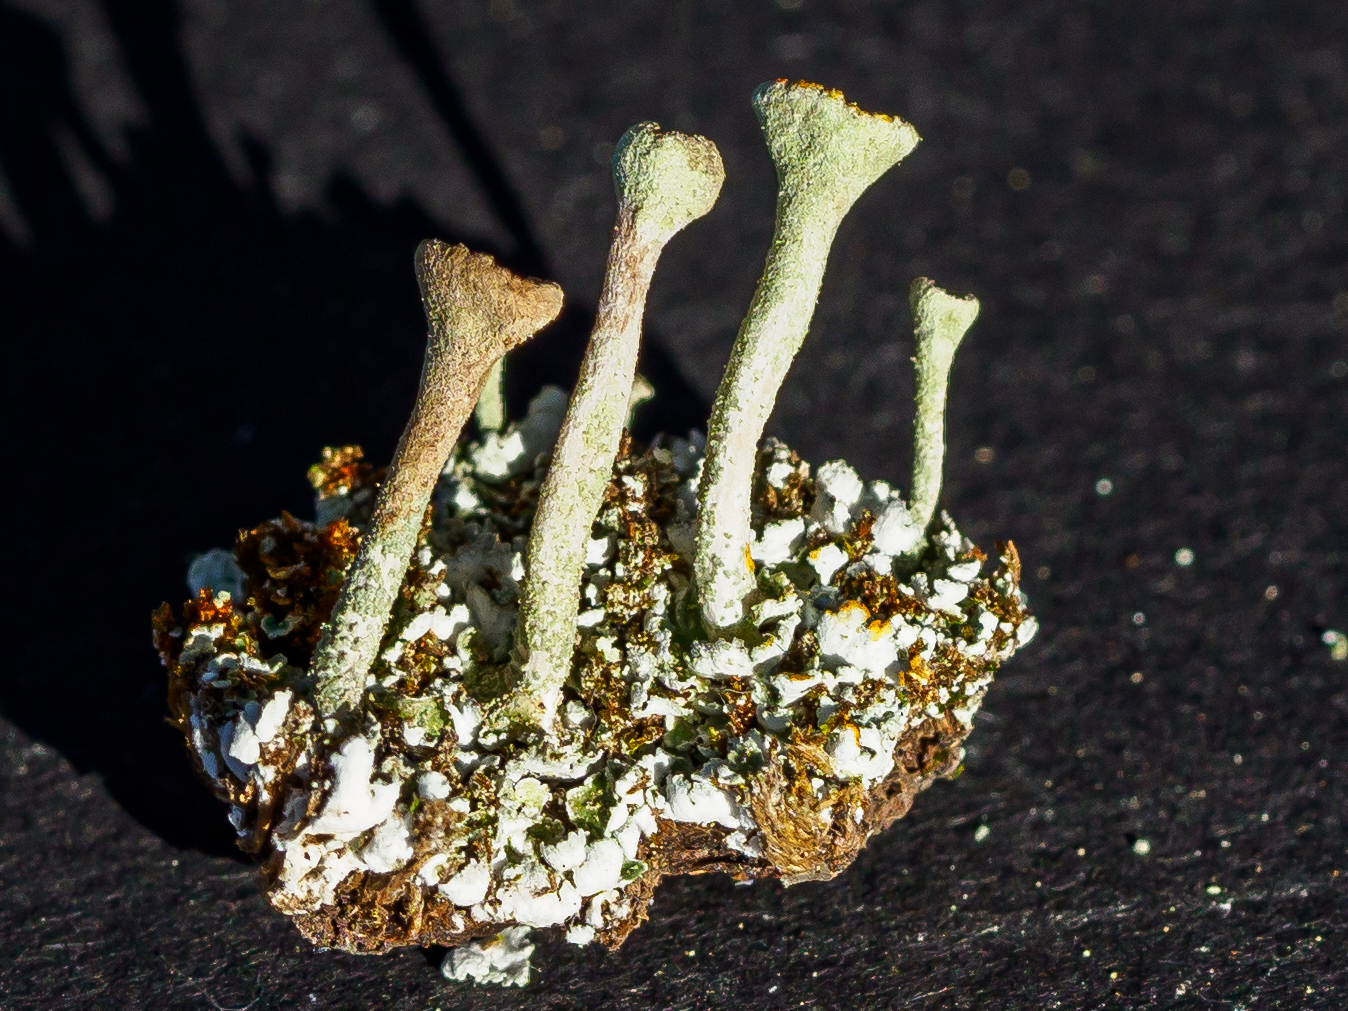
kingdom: Fungi
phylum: Ascomycota
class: Lecanoromycetes
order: Lecanorales
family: Cladoniaceae
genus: Cladonia
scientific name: Cladonia fimbriata
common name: Powdered trumpet lichen
